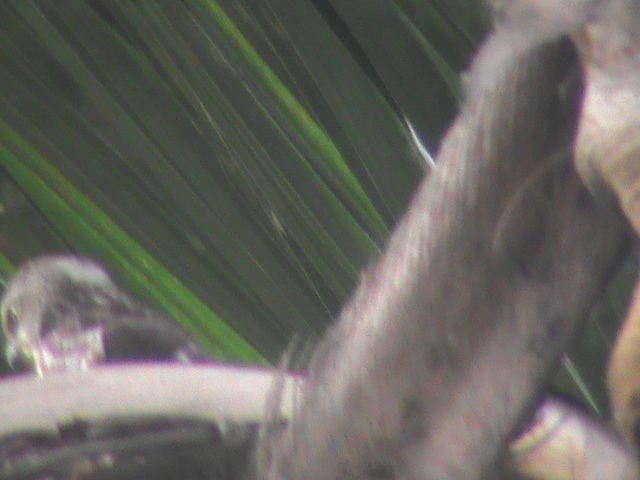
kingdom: Animalia
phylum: Chordata
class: Aves
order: Accipitriformes
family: Accipitridae
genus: Accipiter
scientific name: Accipiter badius
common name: Shikra
